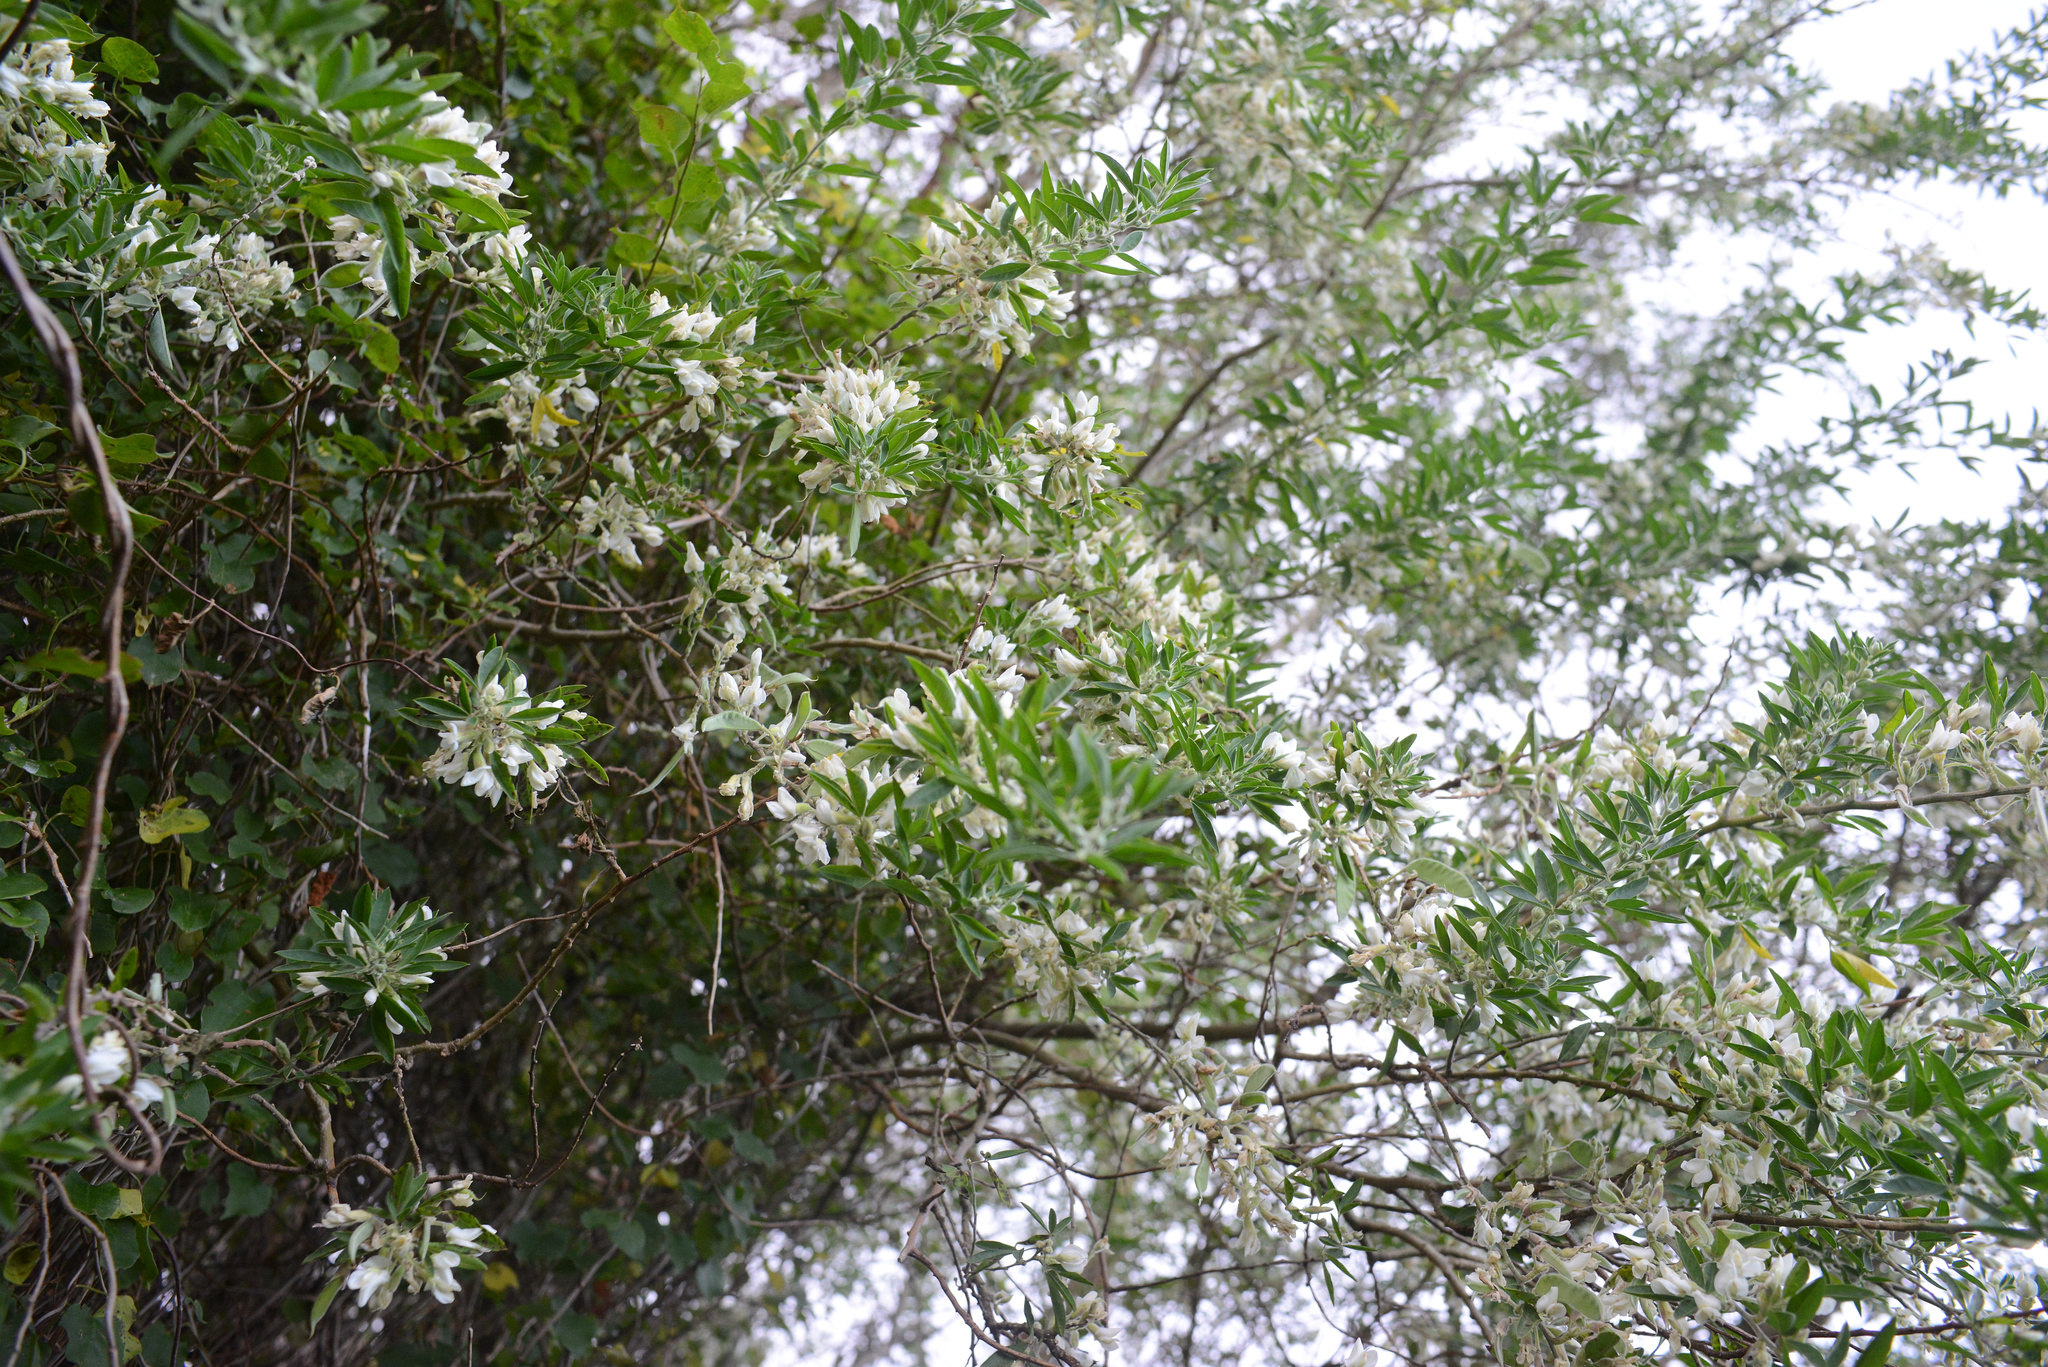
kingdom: Plantae
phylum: Tracheophyta
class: Magnoliopsida
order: Fabales
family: Fabaceae
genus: Chamaecytisus
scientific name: Chamaecytisus prolifer
